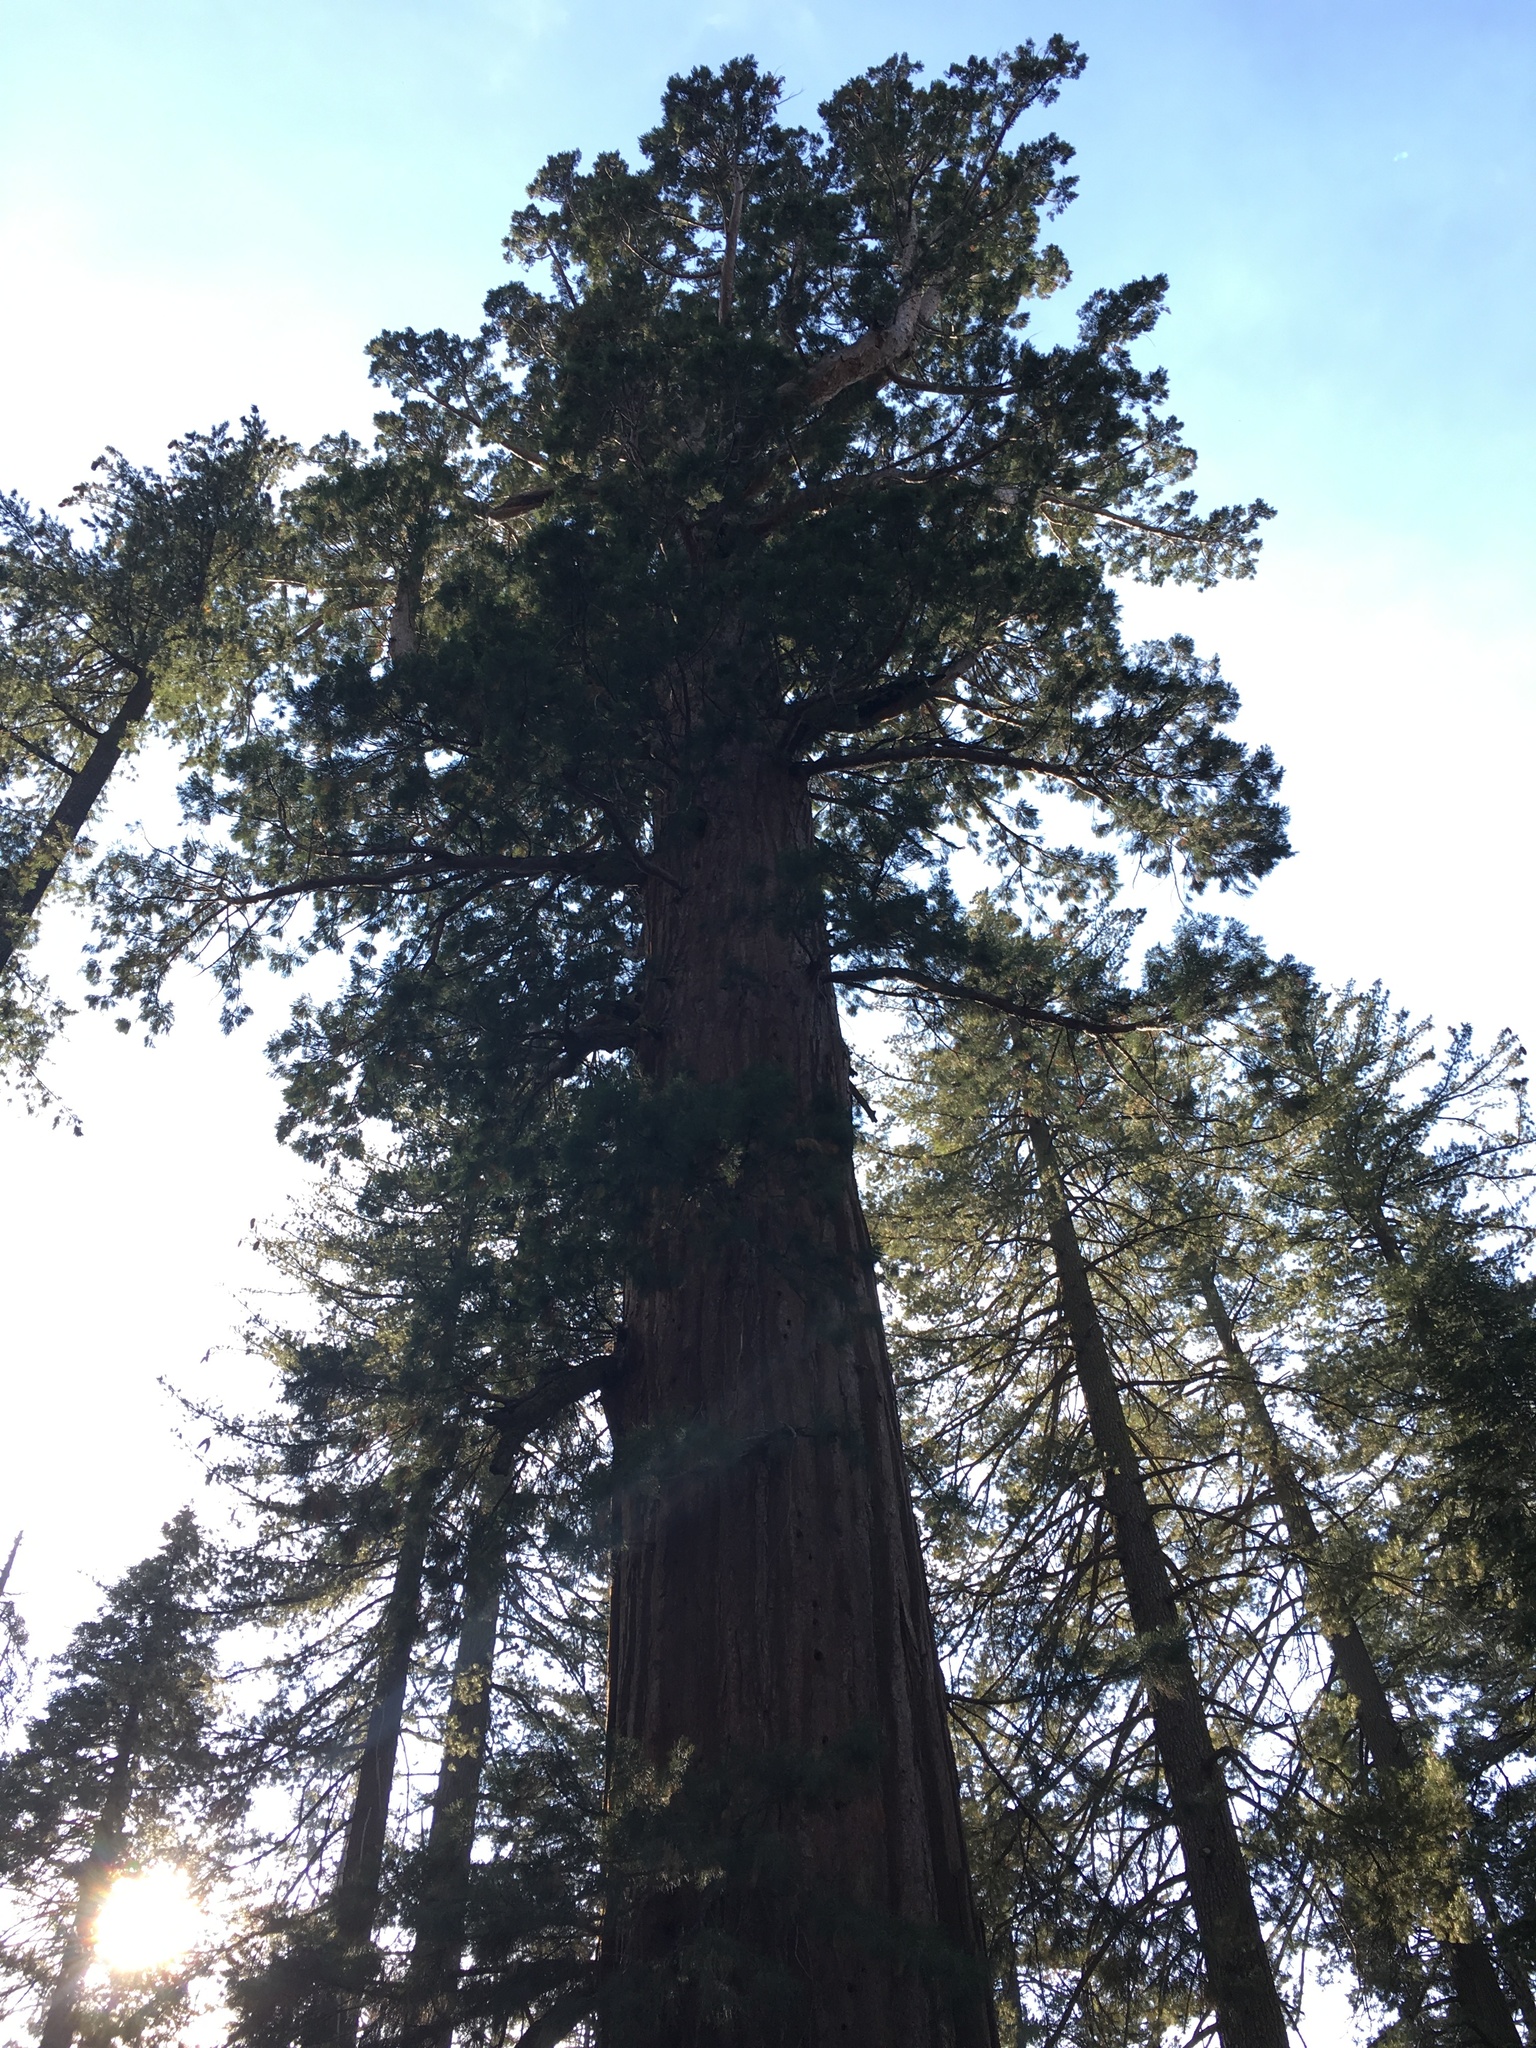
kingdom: Plantae
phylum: Tracheophyta
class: Pinopsida
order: Pinales
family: Cupressaceae
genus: Sequoiadendron
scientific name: Sequoiadendron giganteum
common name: Wellingtonia
